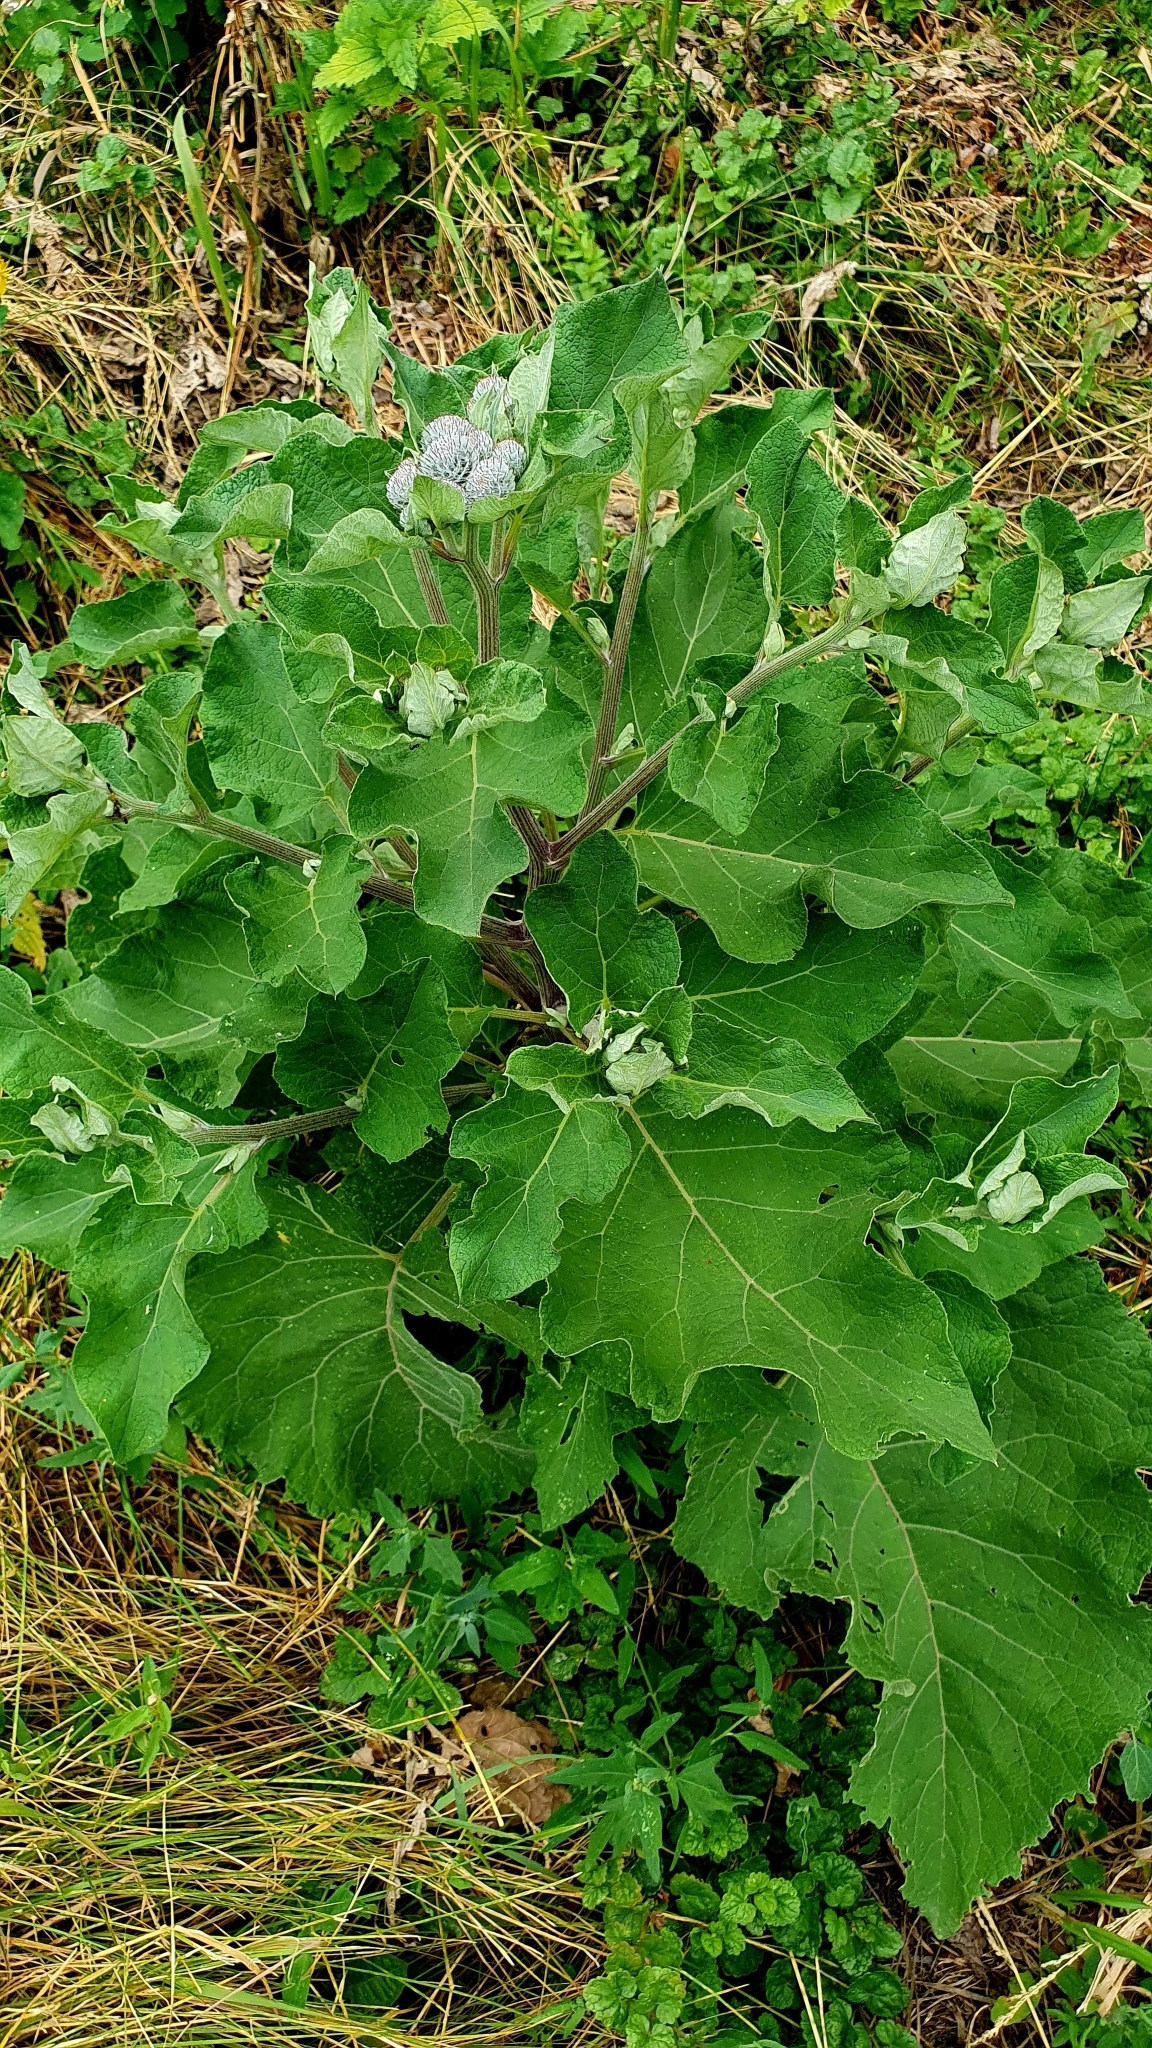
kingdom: Plantae
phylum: Tracheophyta
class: Magnoliopsida
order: Asterales
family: Asteraceae
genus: Arctium
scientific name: Arctium tomentosum
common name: Woolly burdock
